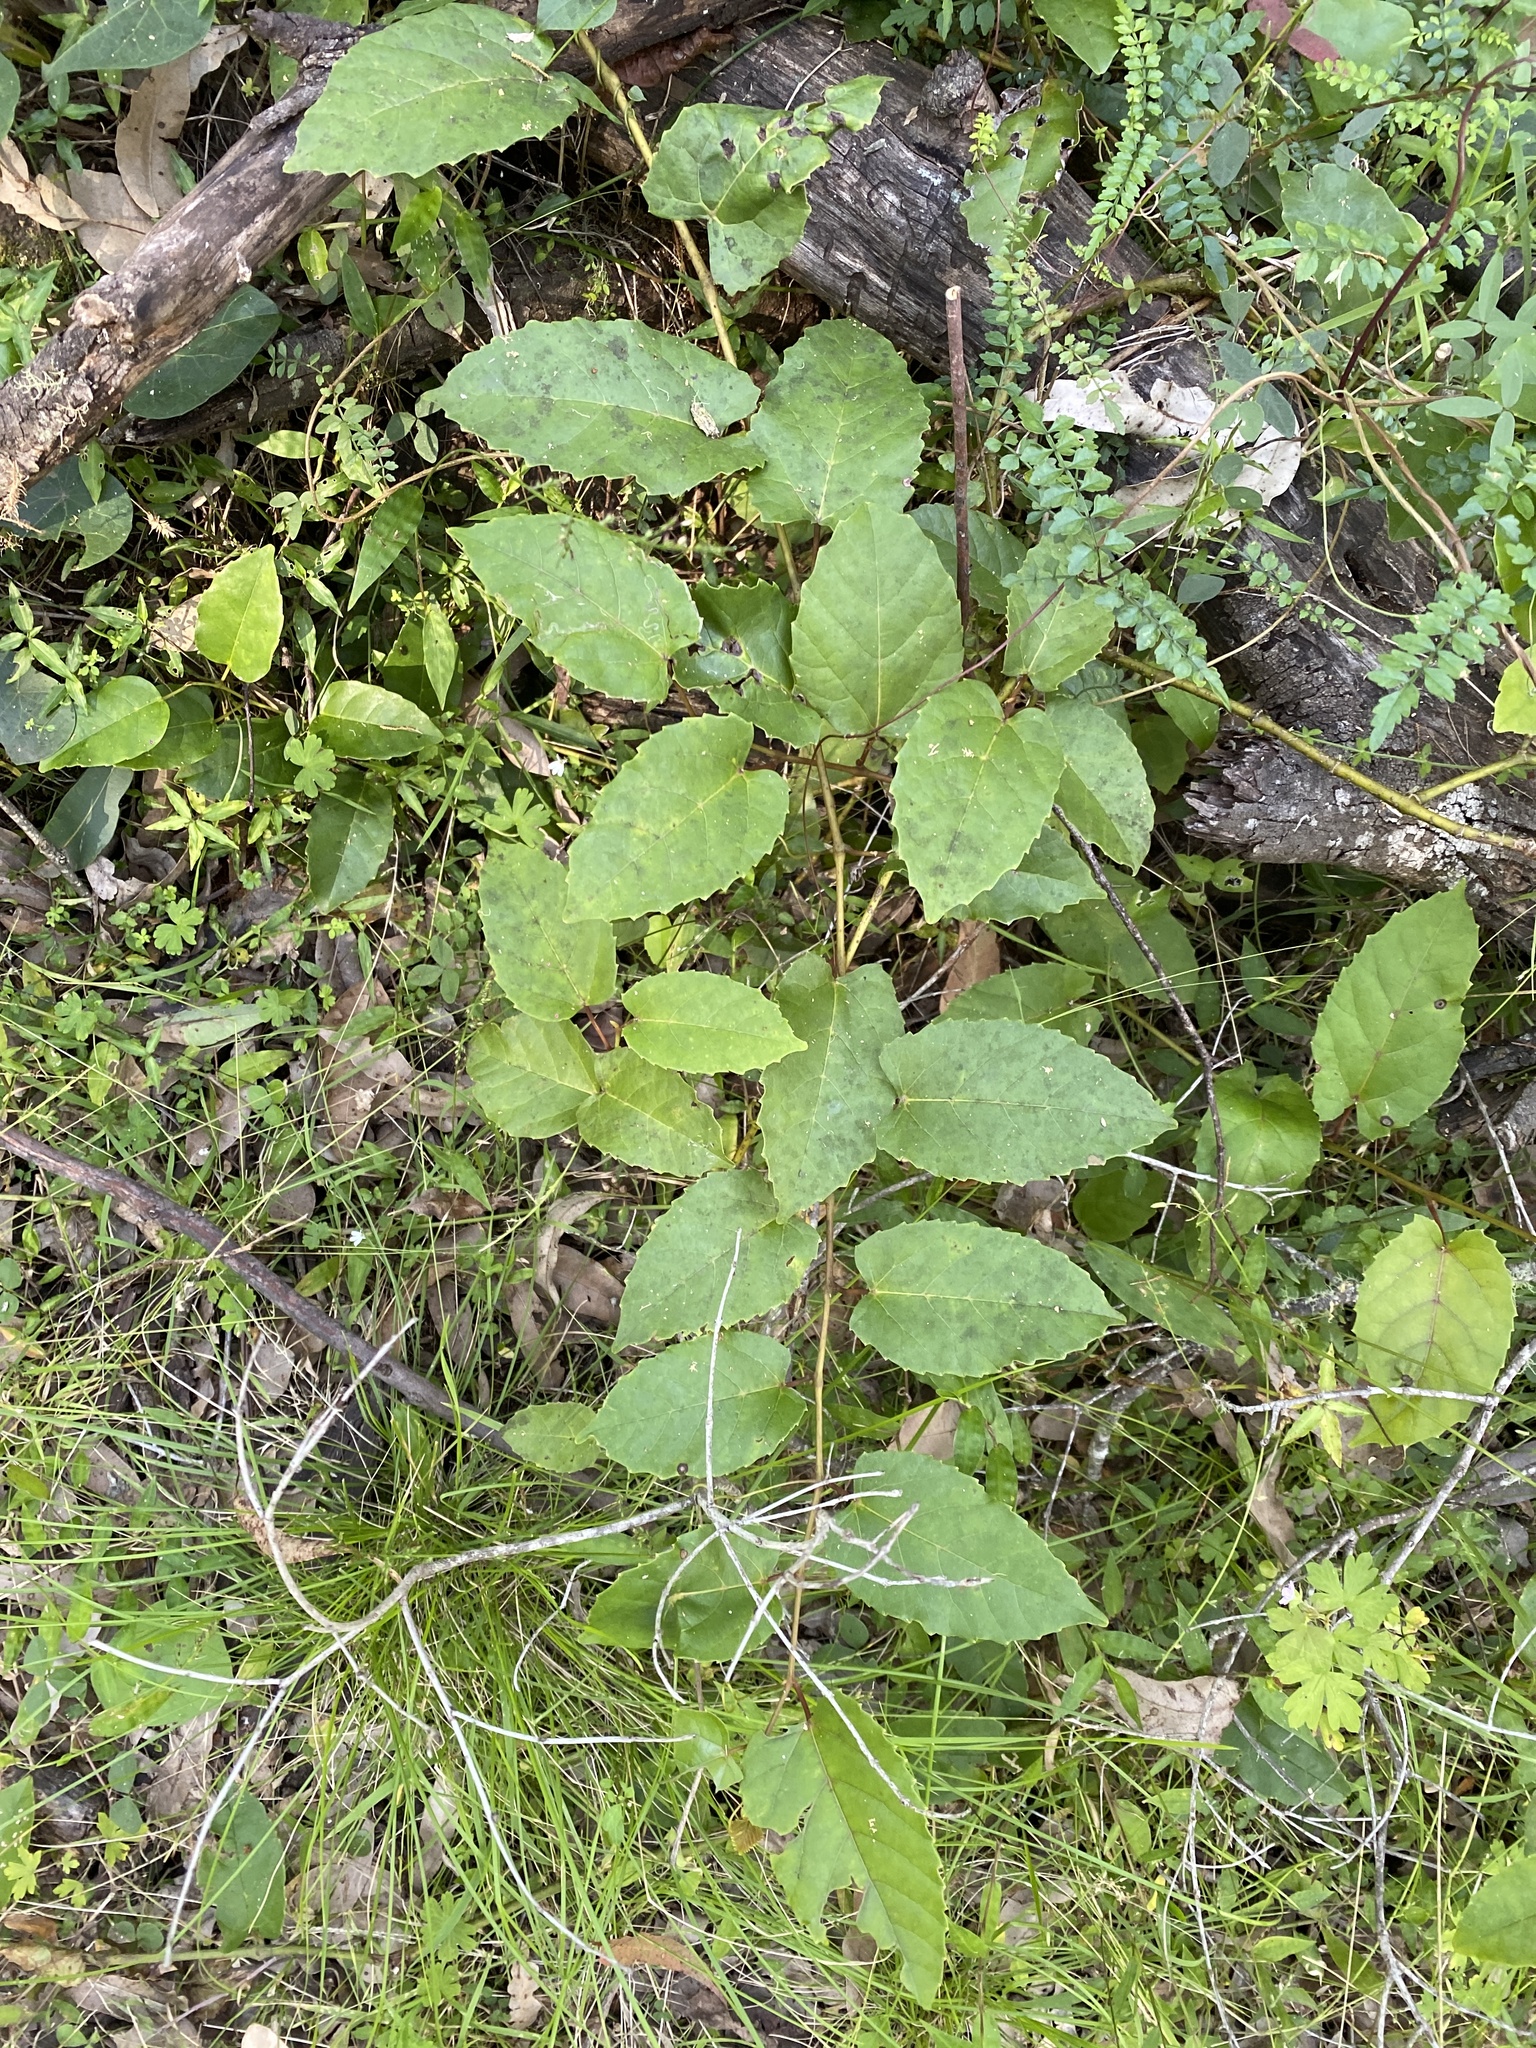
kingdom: Plantae
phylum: Tracheophyta
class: Magnoliopsida
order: Vitales
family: Vitaceae
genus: Cissus
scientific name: Cissus antarctica
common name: Kangaroo vine
